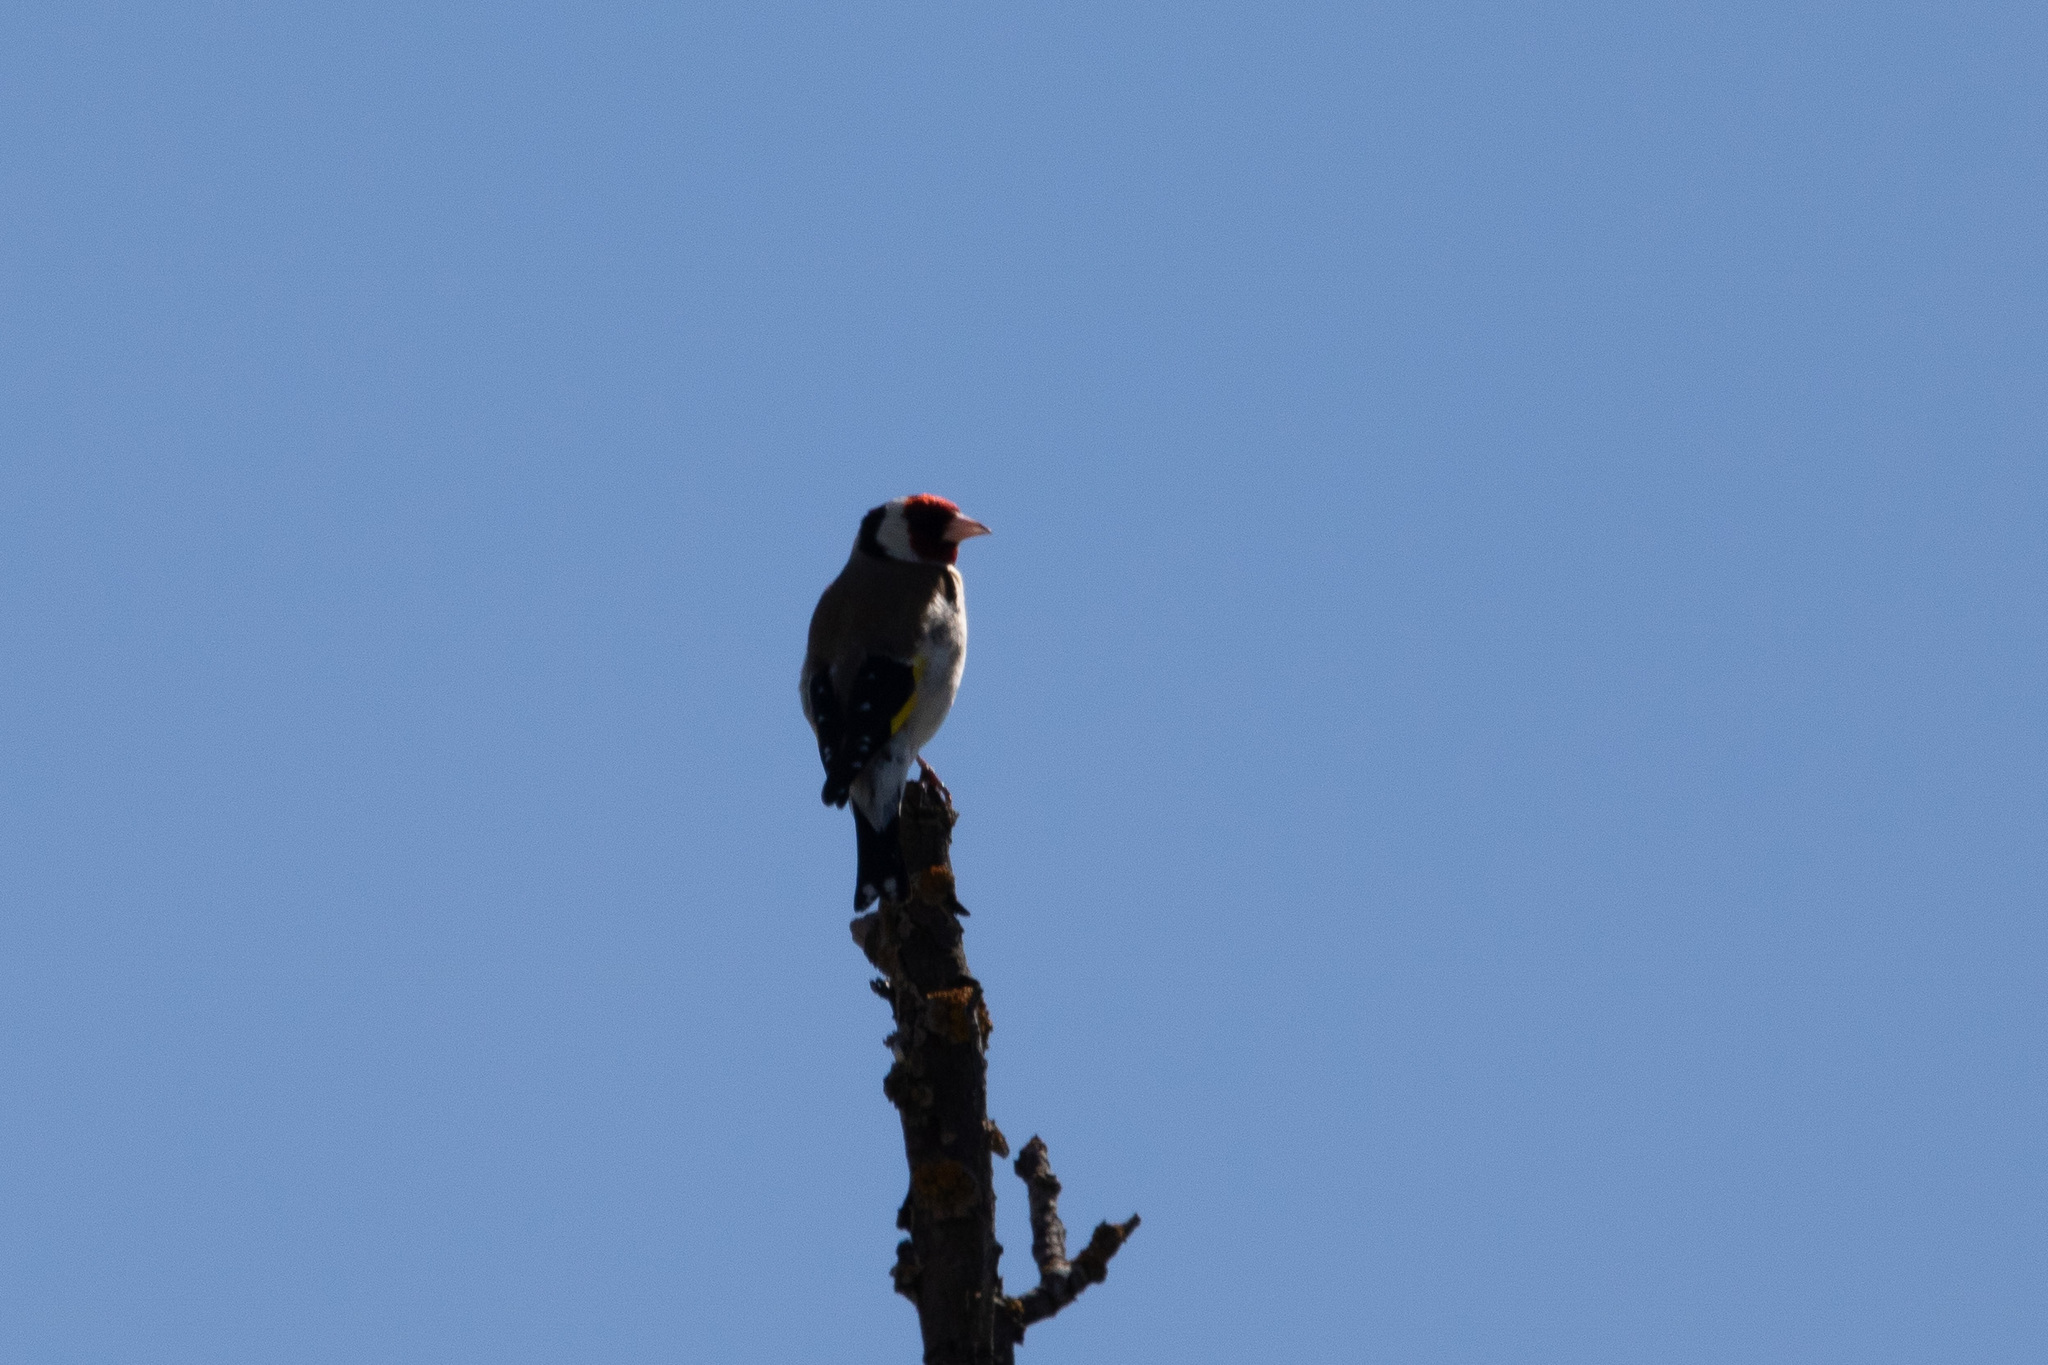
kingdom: Animalia
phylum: Chordata
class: Aves
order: Passeriformes
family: Fringillidae
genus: Carduelis
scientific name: Carduelis carduelis
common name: European goldfinch
